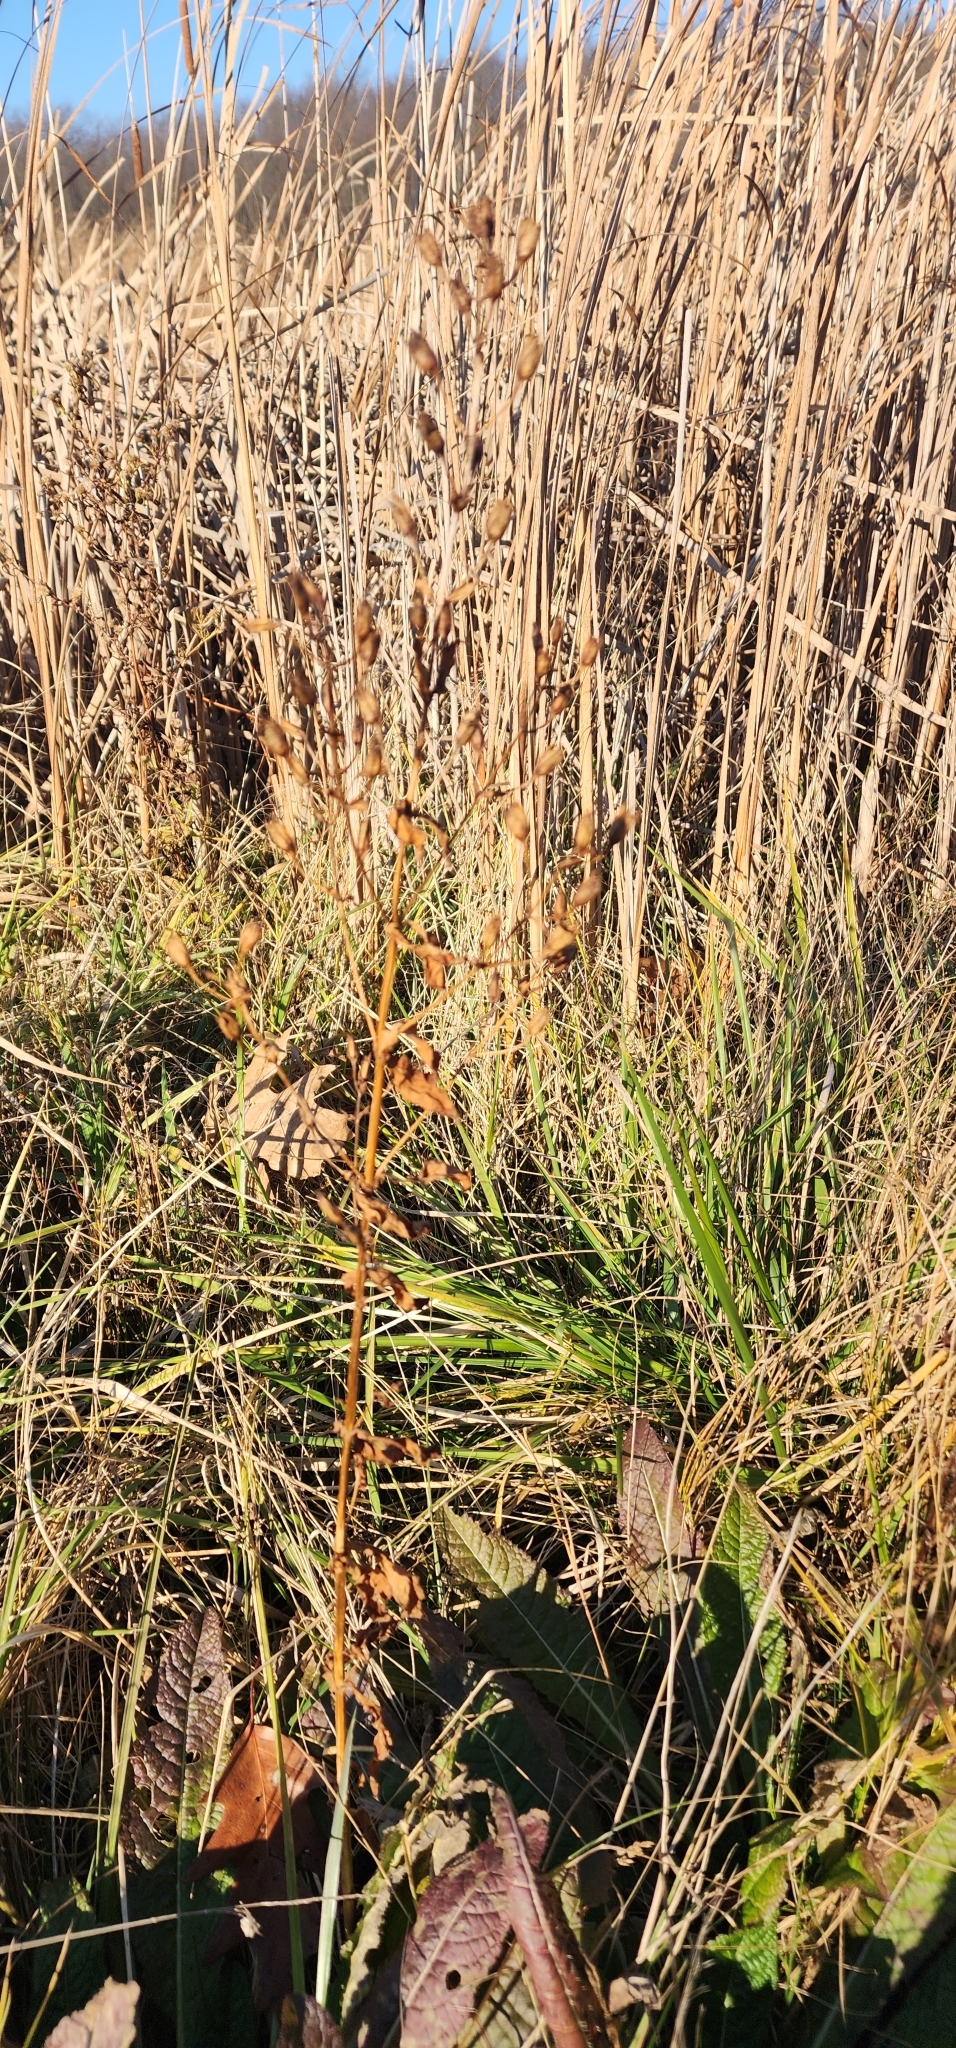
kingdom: Plantae
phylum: Tracheophyta
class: Magnoliopsida
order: Lamiales
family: Phrymaceae
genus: Mimulus
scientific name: Mimulus ringens
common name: Allegheny monkeyflower
